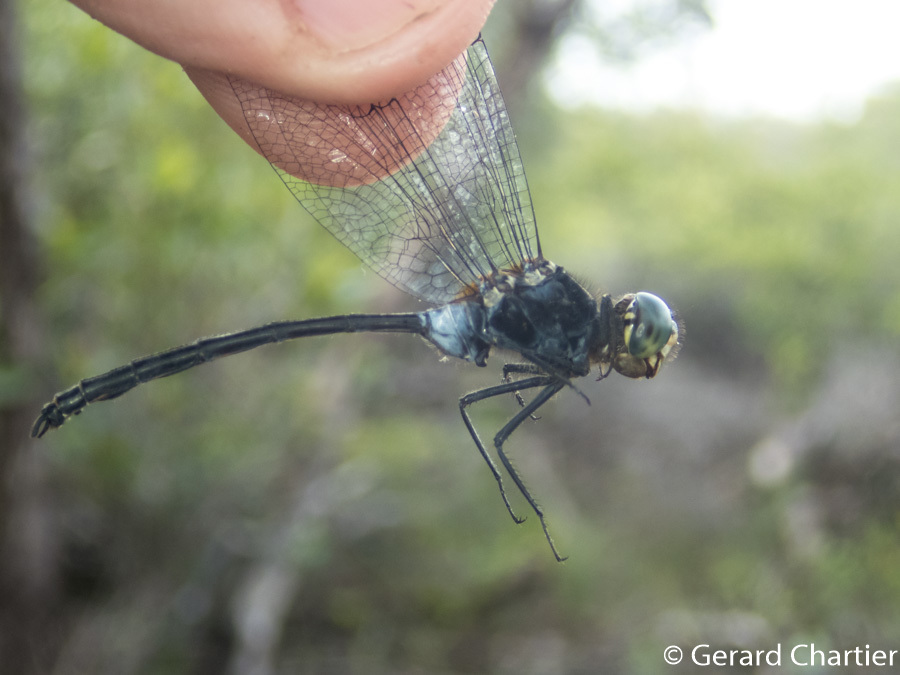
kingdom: Animalia
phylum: Arthropoda
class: Insecta
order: Odonata
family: Libellulidae
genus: Pornothemis
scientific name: Pornothemis starrei
